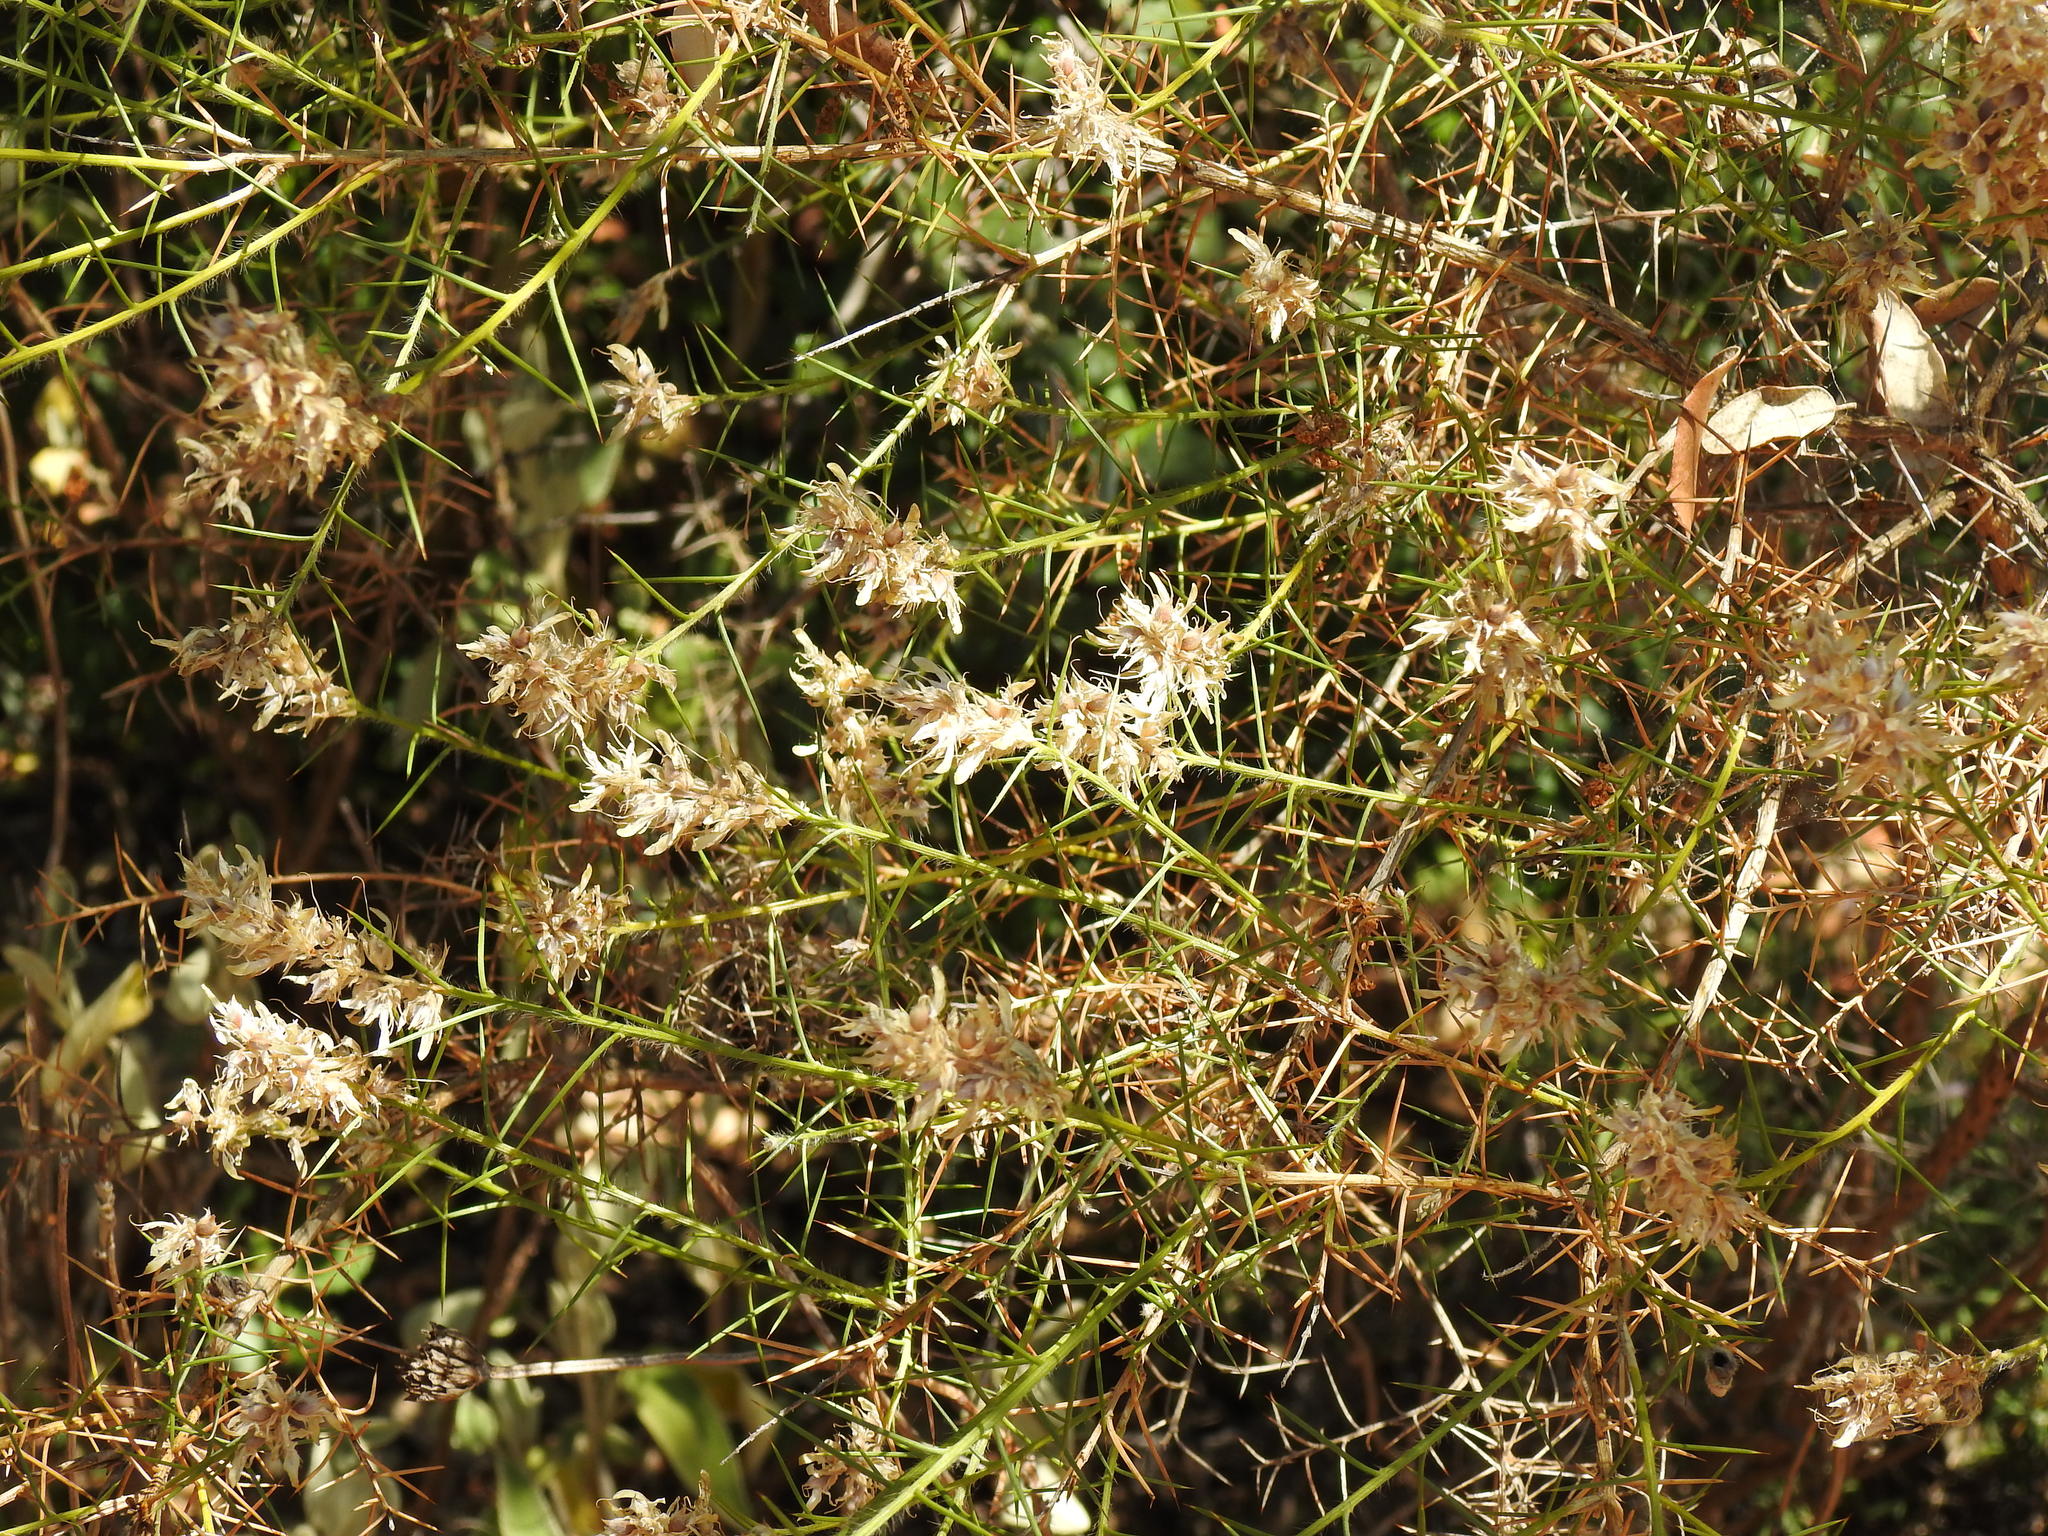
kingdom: Plantae
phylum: Tracheophyta
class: Magnoliopsida
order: Fabales
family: Fabaceae
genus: Genista
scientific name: Genista hirsuta
